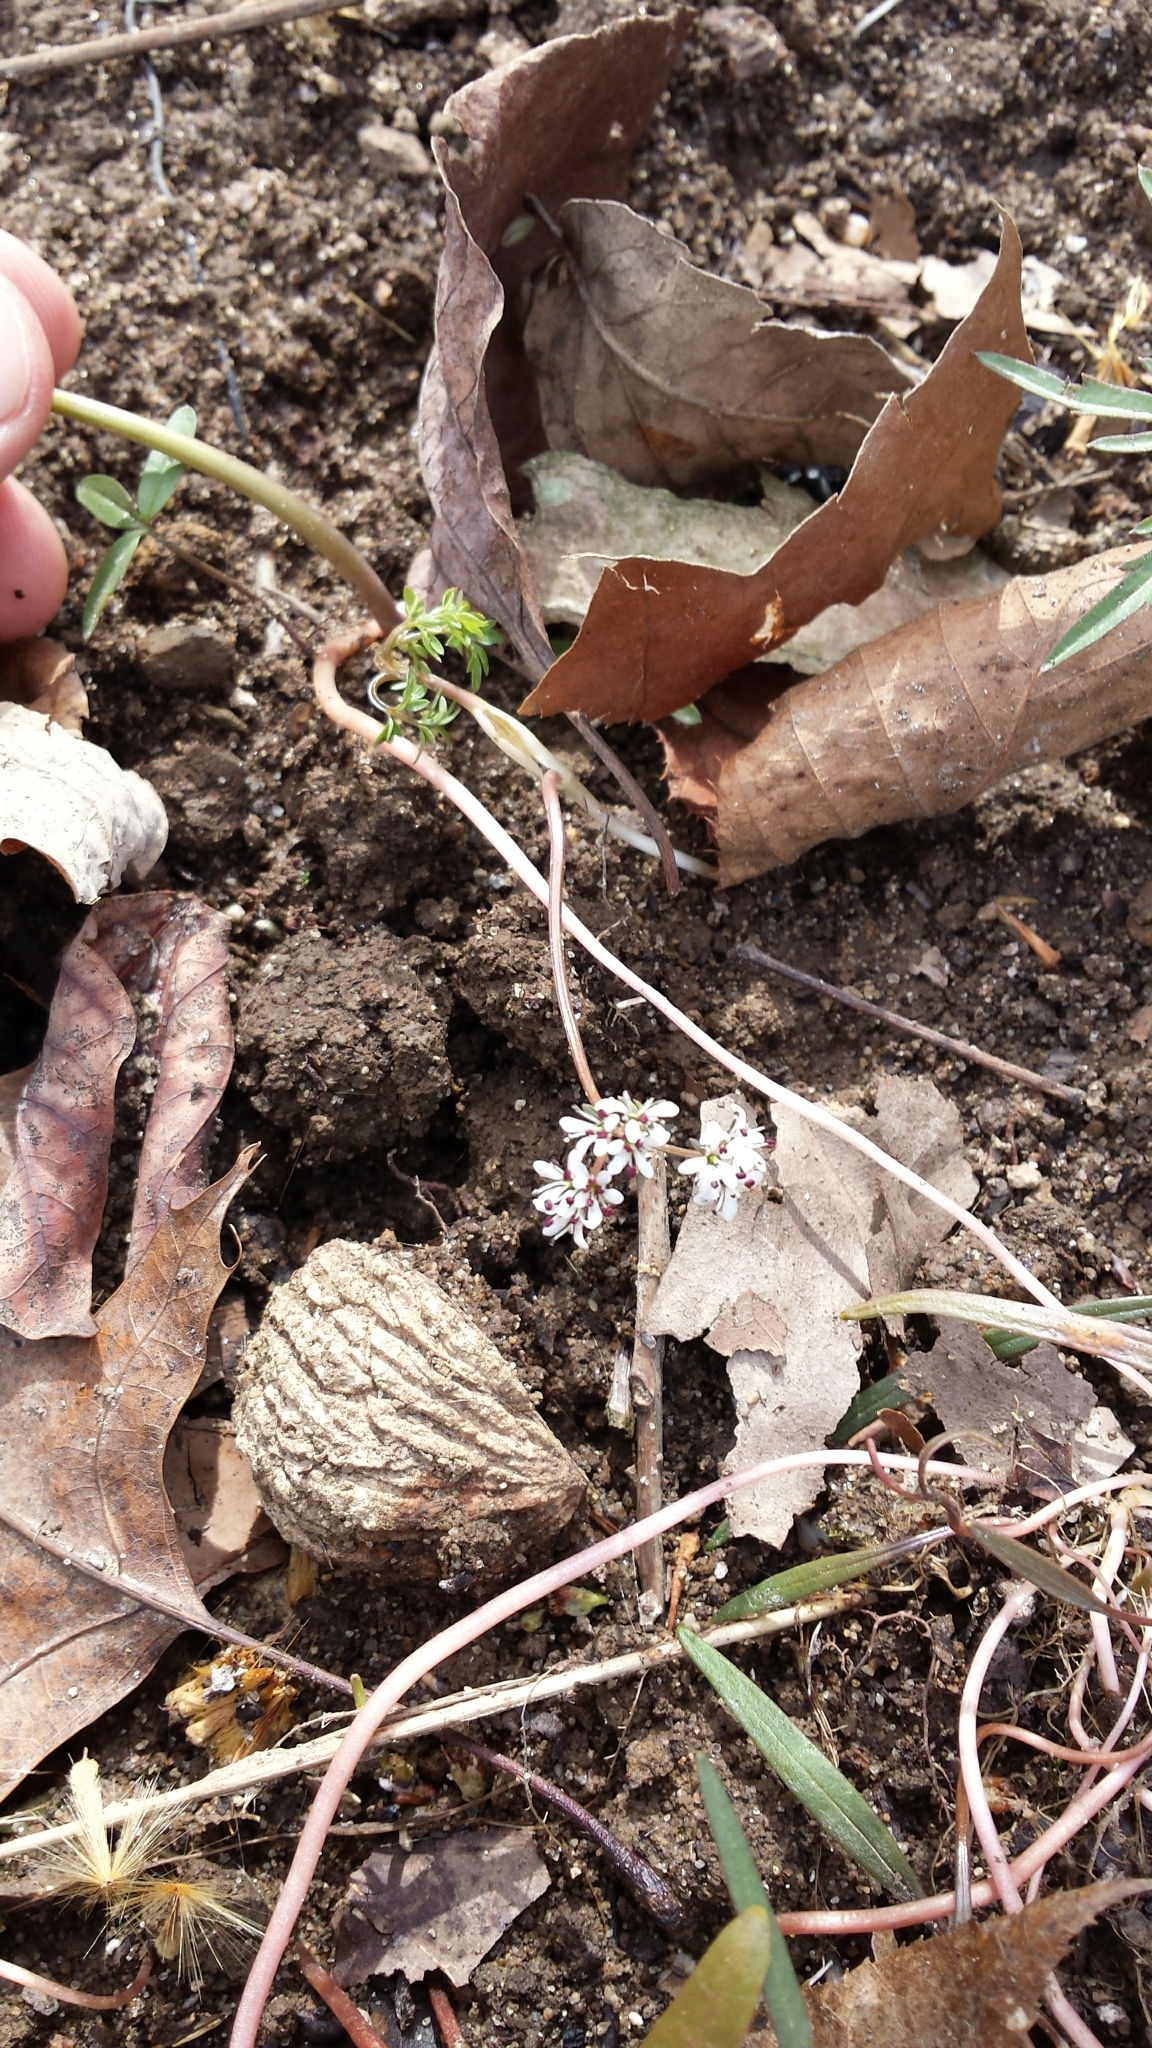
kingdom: Plantae
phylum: Tracheophyta
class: Magnoliopsida
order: Apiales
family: Apiaceae
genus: Erigenia
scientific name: Erigenia bulbosa
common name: Pepper-and-salt
